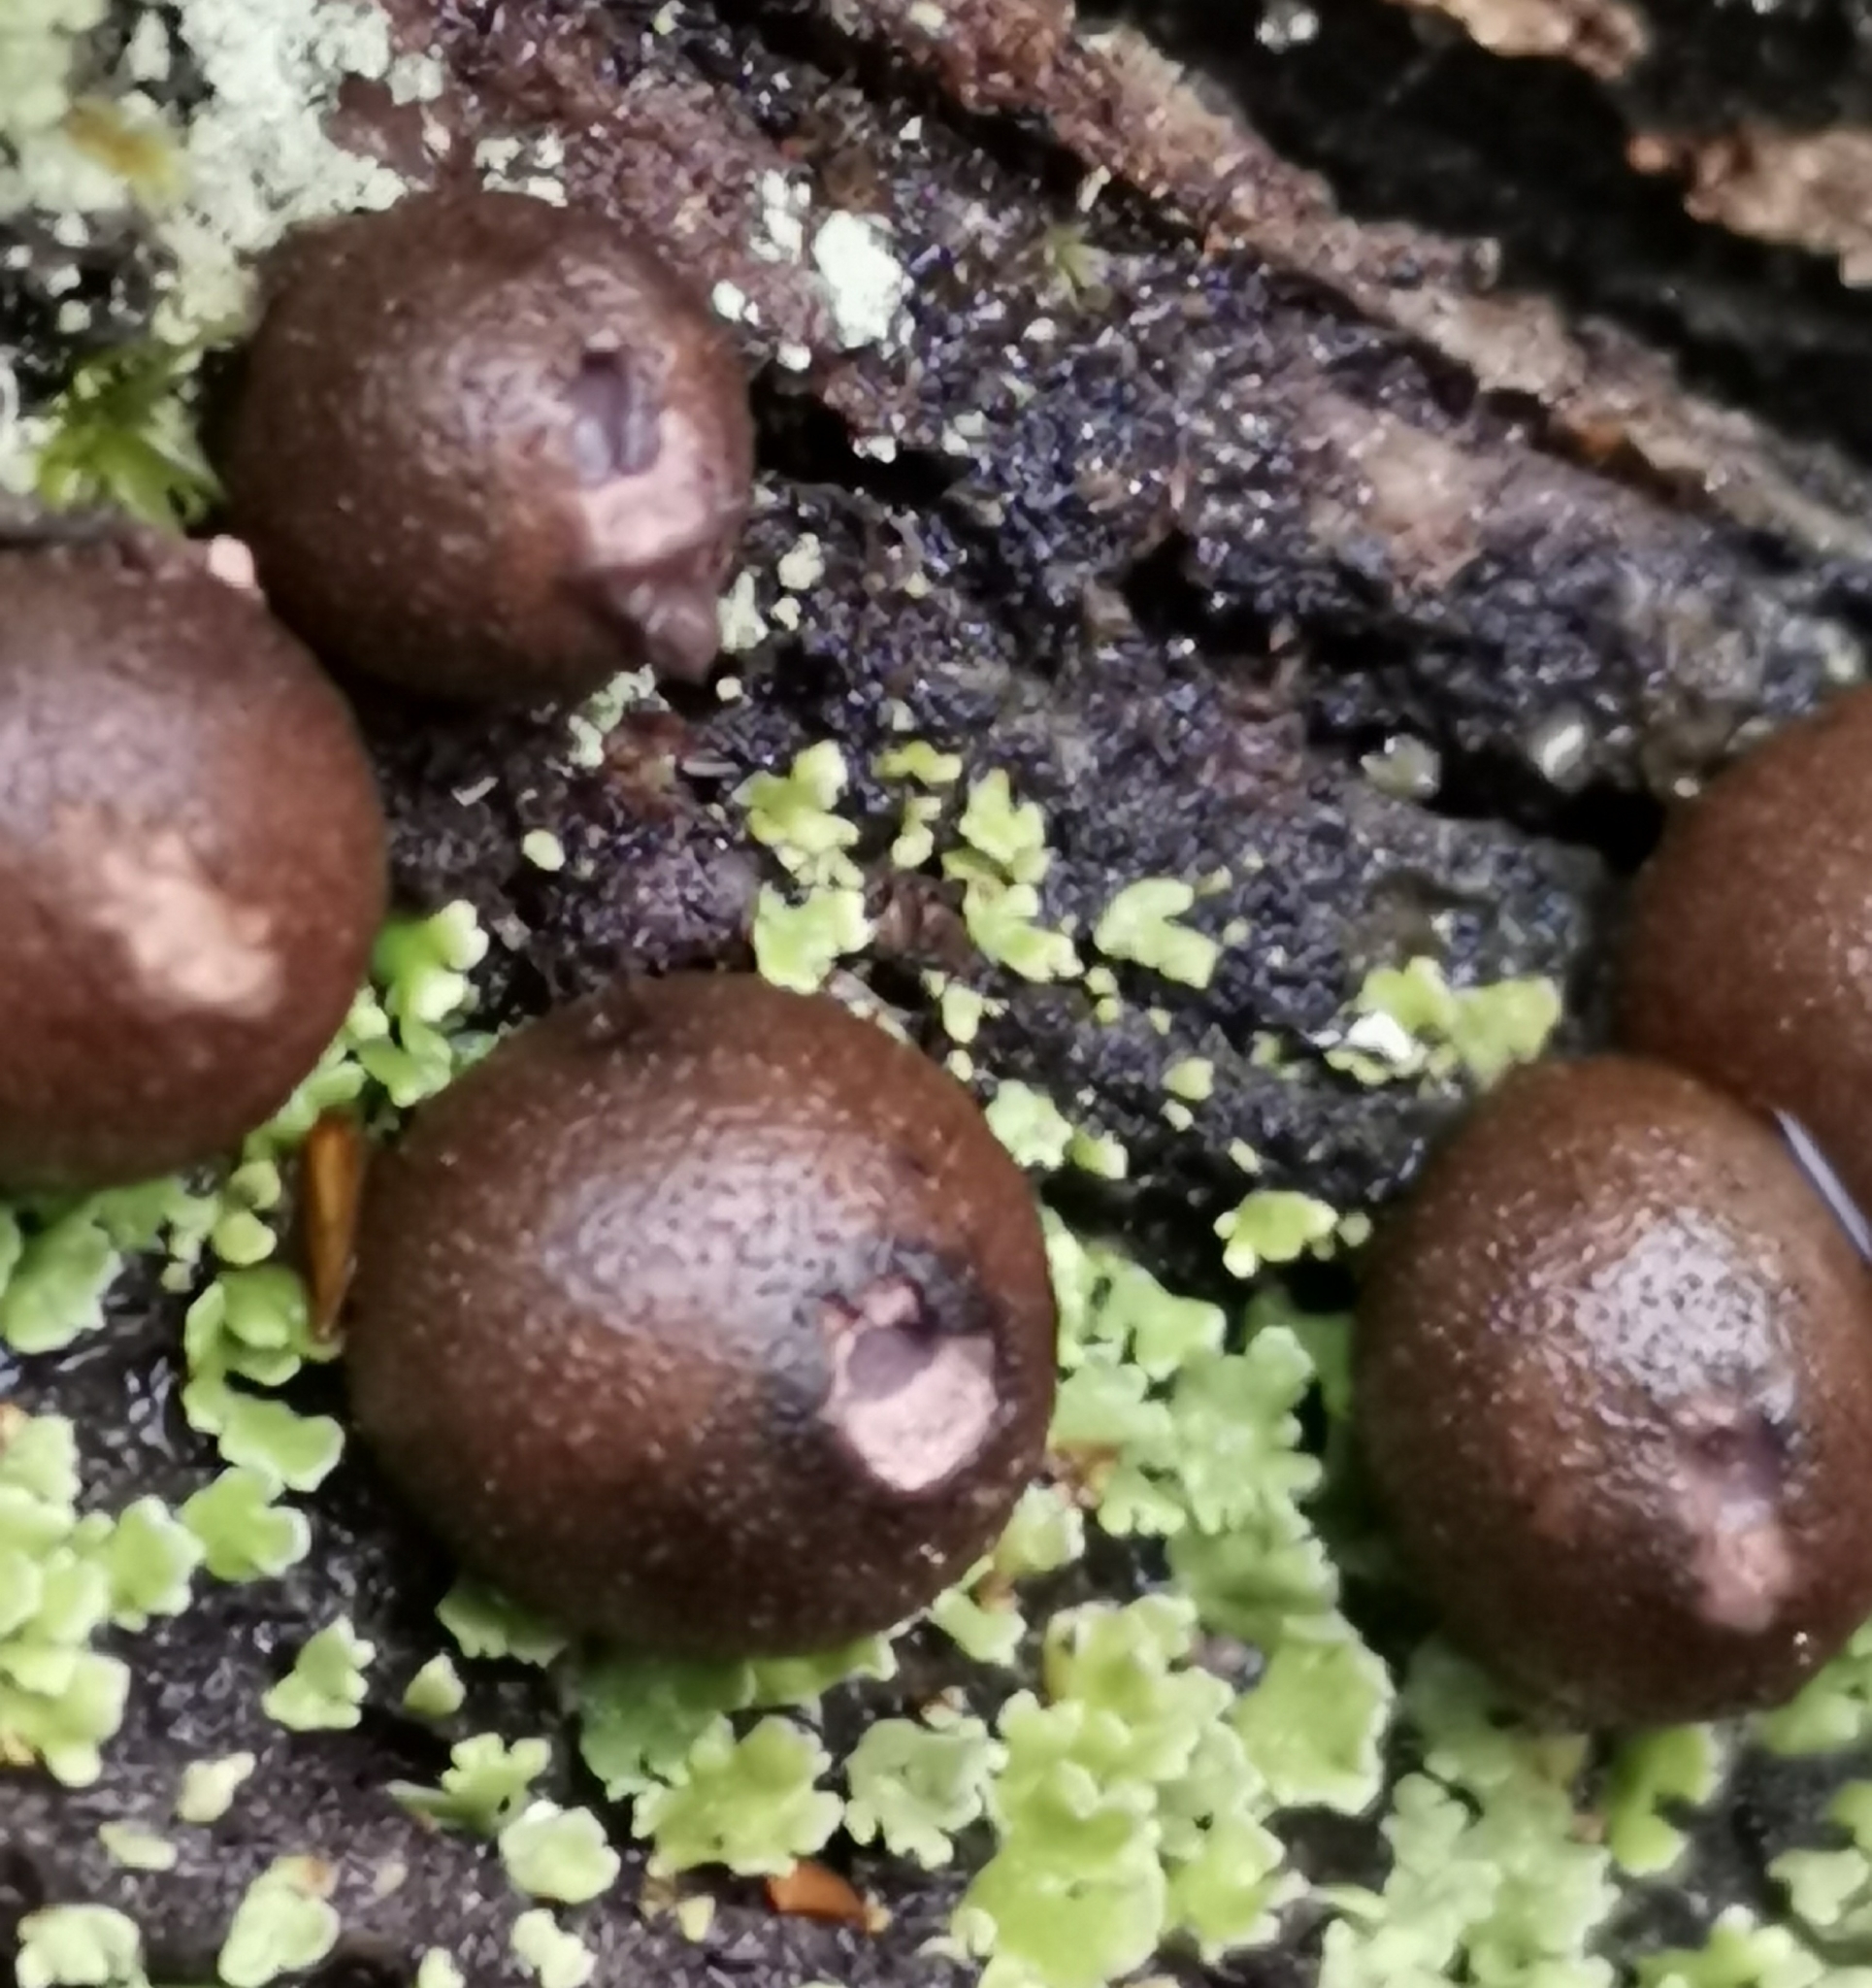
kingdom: Protozoa
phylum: Mycetozoa
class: Myxomycetes
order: Cribrariales
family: Tubiferaceae
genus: Lycogala
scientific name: Lycogala epidendrum
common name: Wolf's milk
